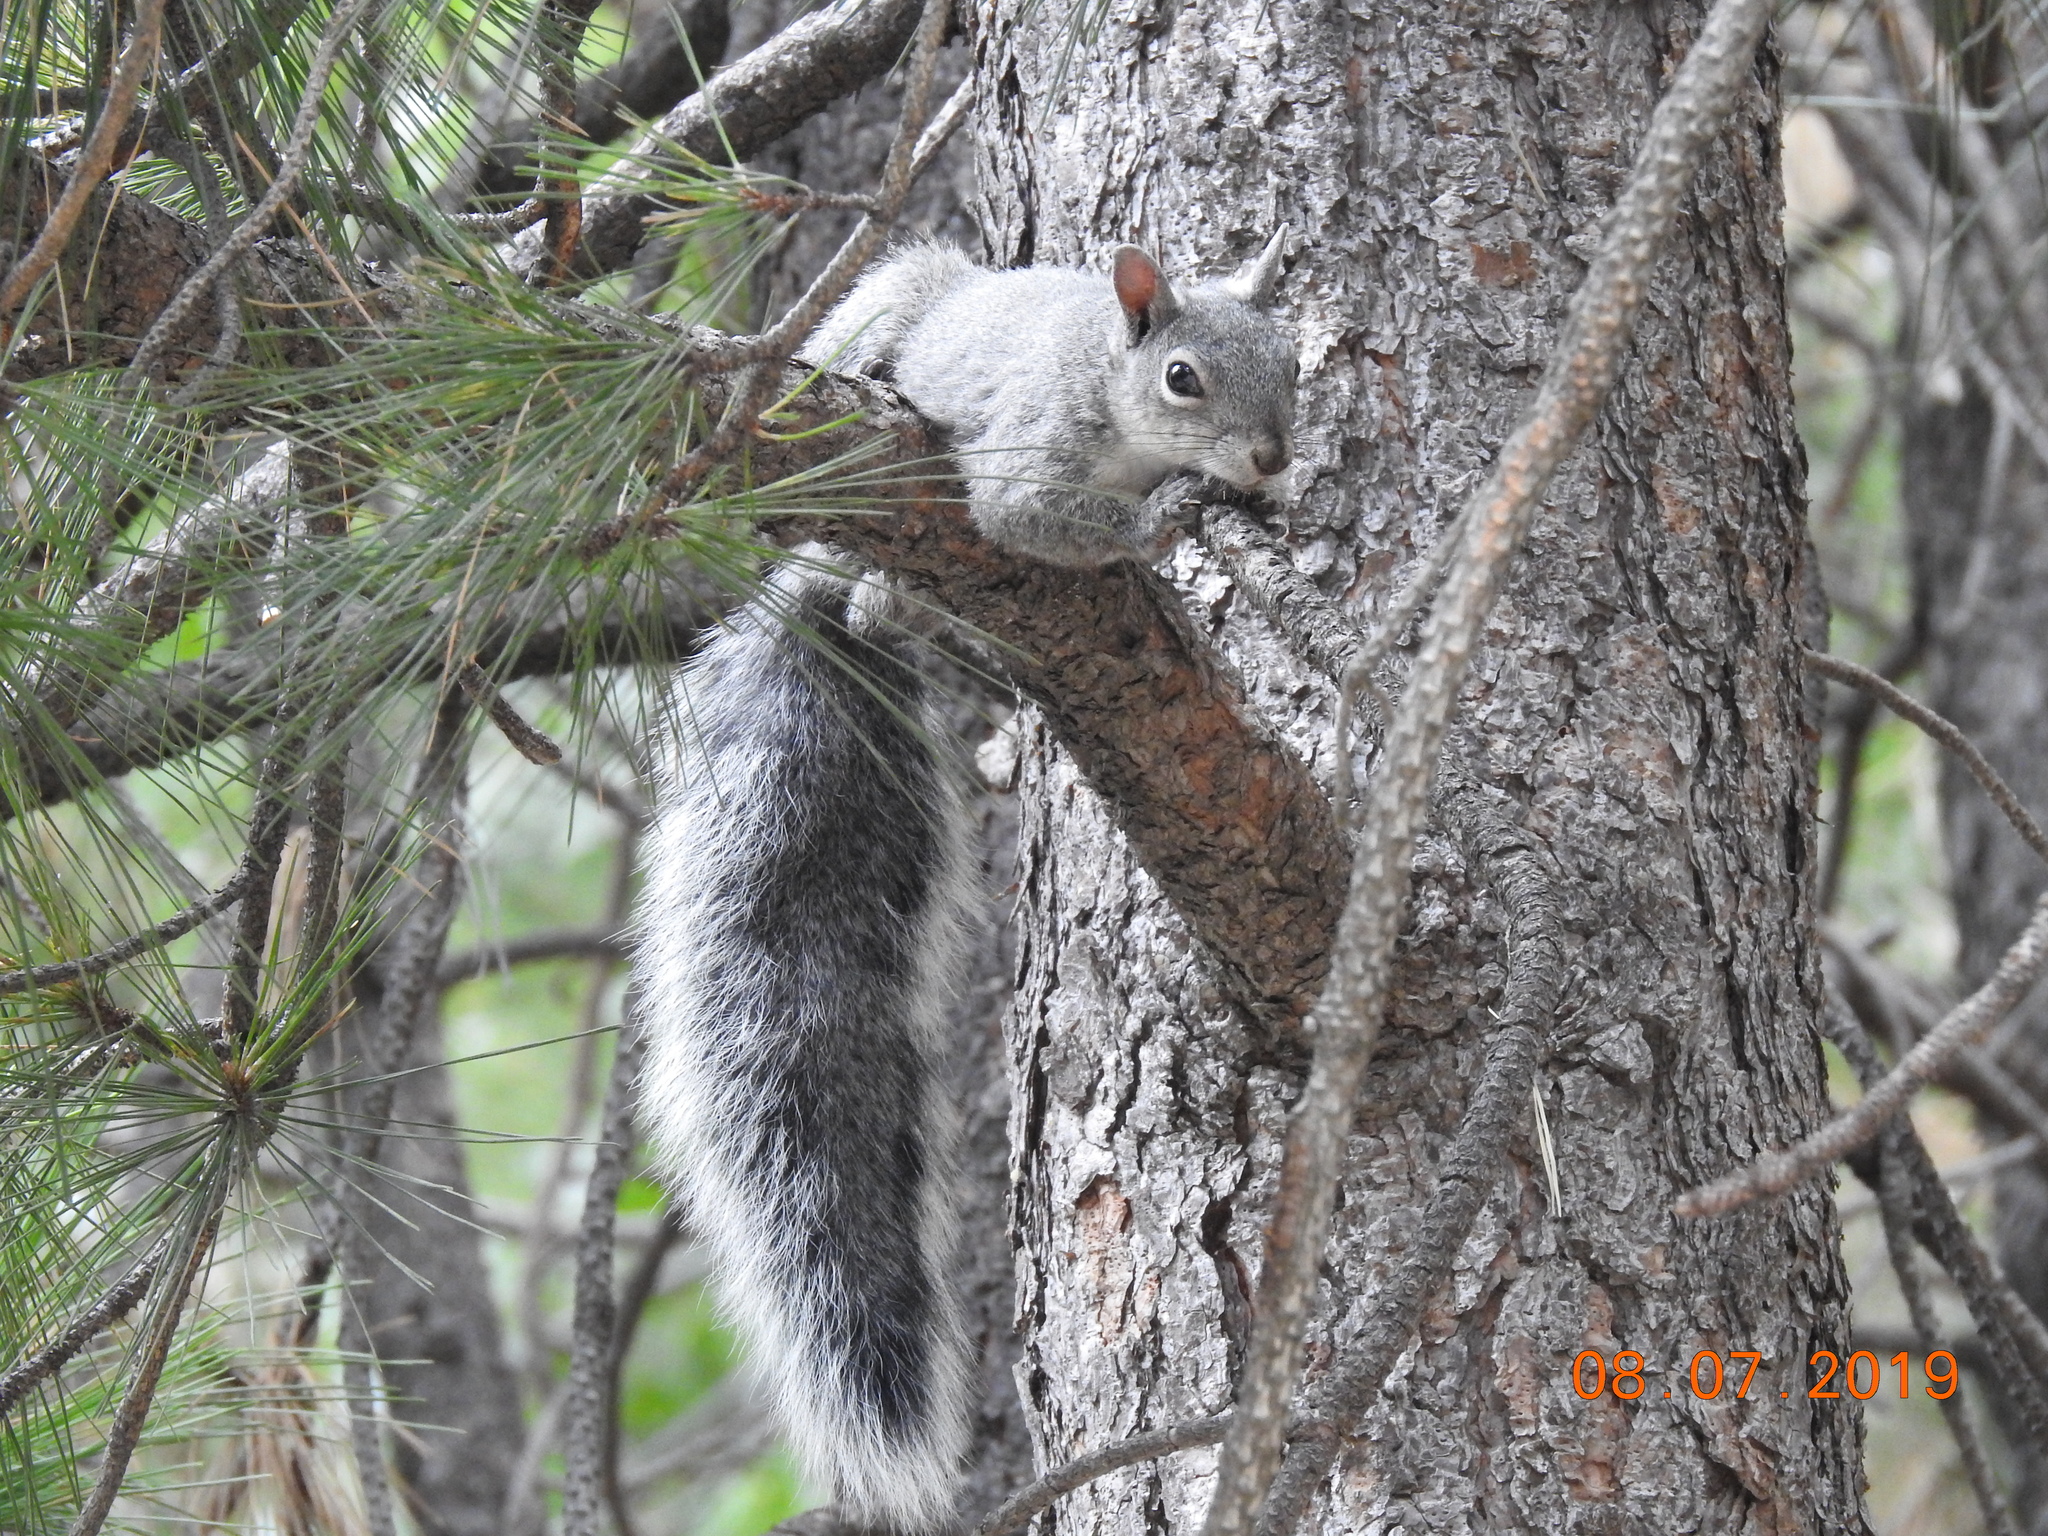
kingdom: Animalia
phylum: Chordata
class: Mammalia
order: Rodentia
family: Sciuridae
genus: Sciurus
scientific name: Sciurus griseus
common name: Western gray squirrel
